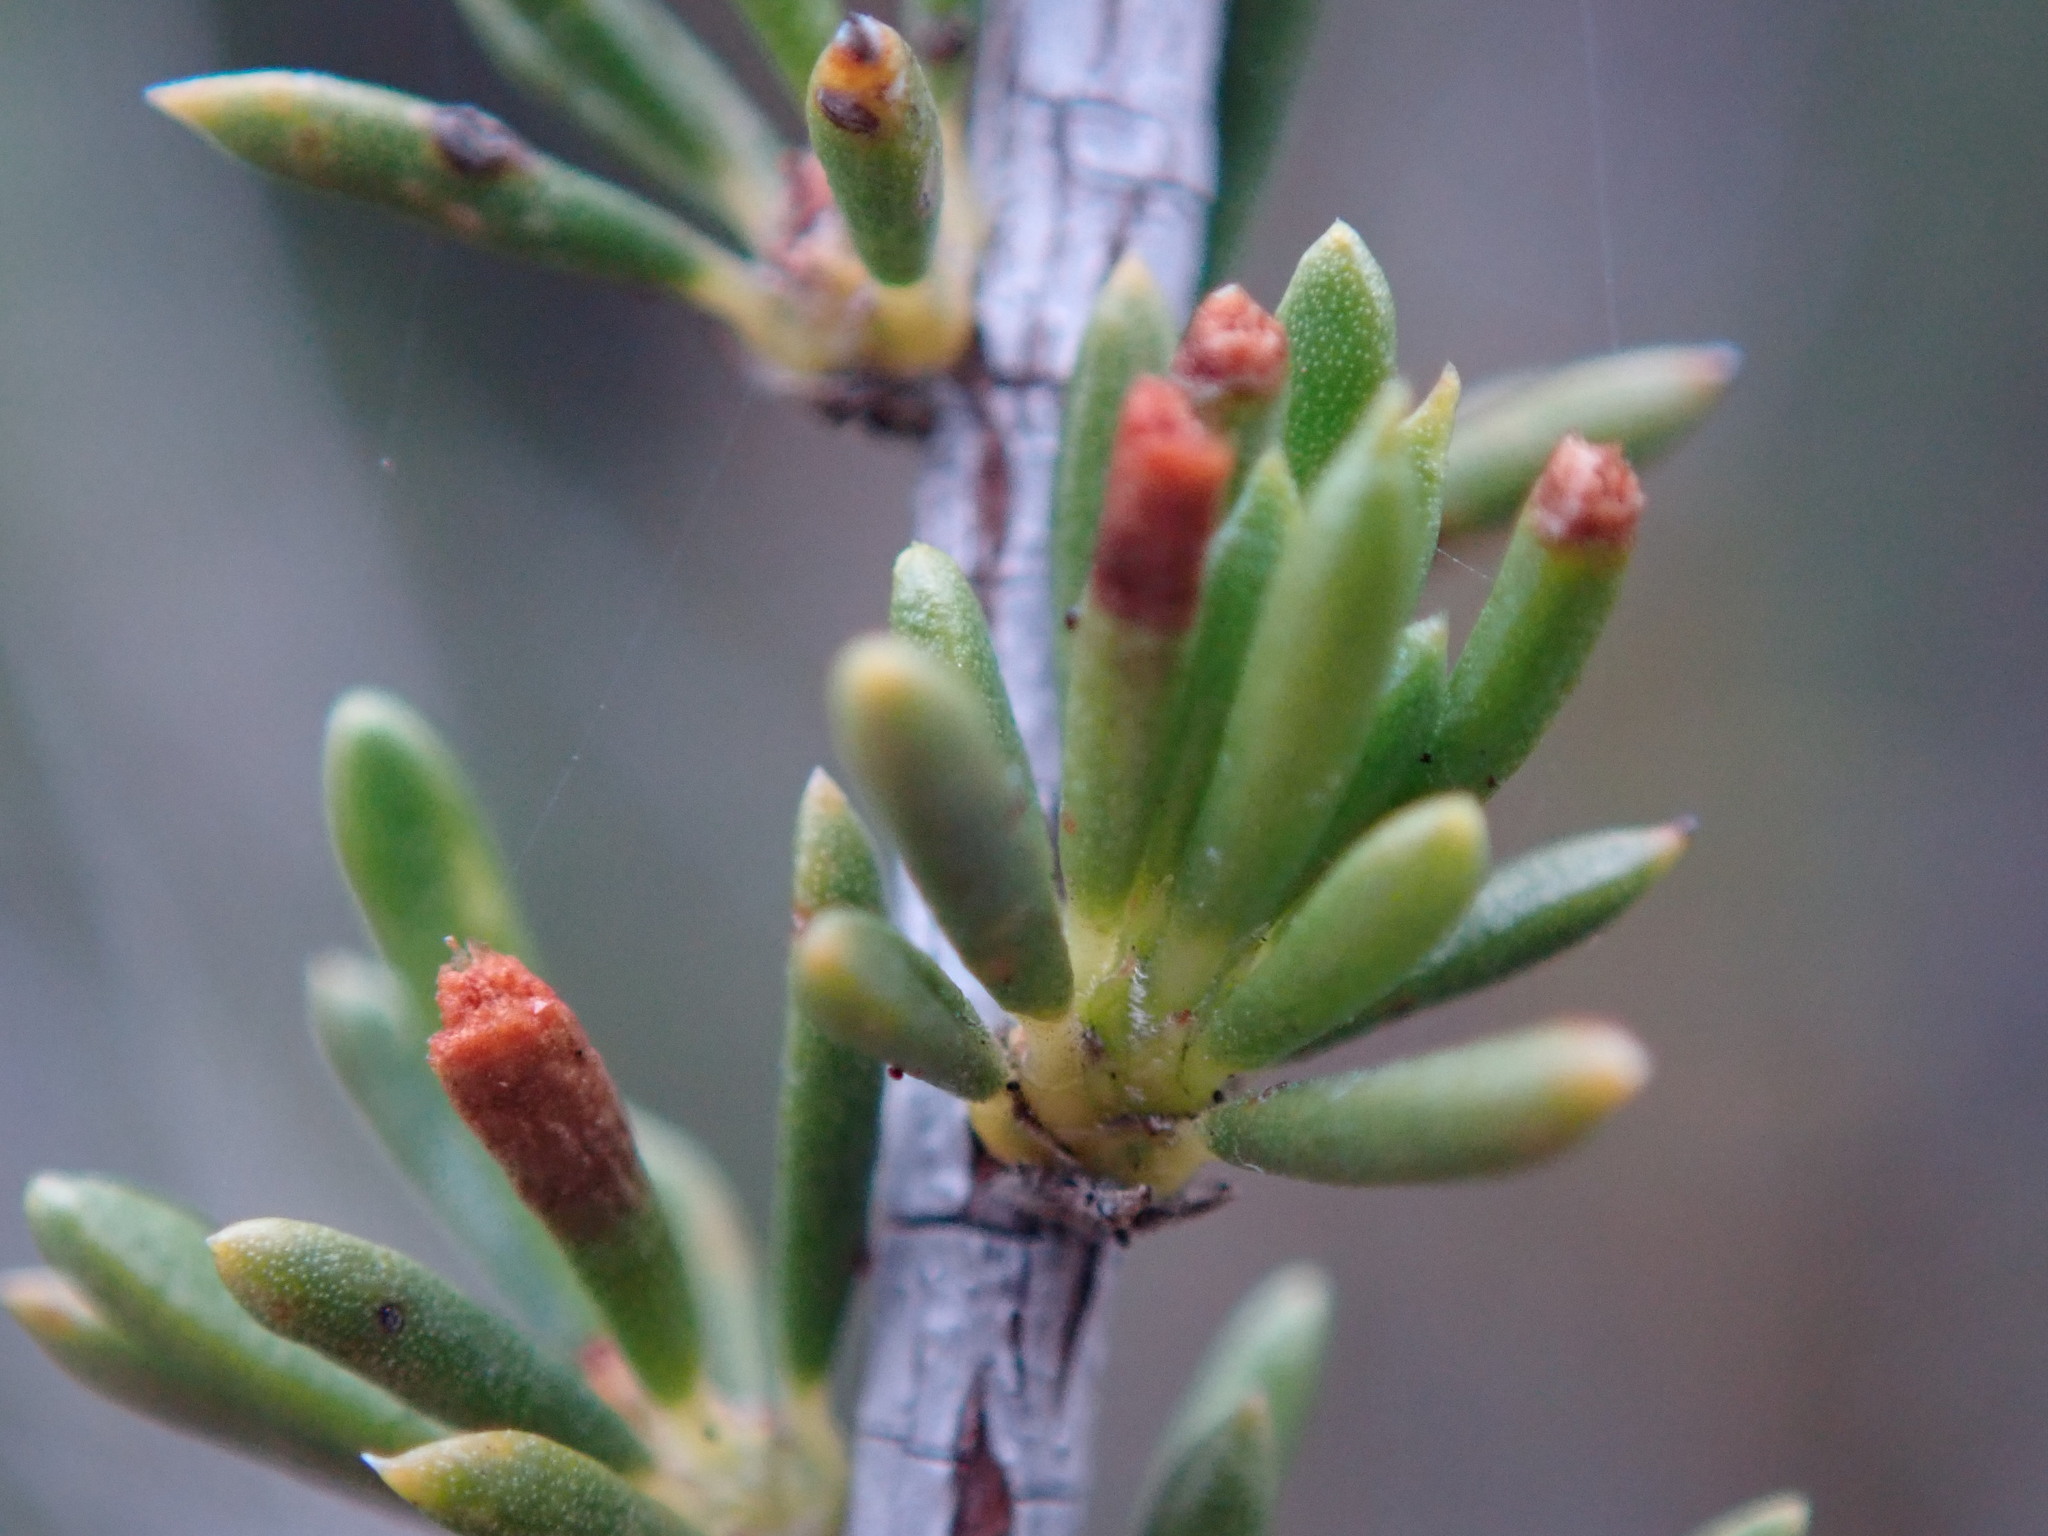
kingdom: Plantae
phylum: Tracheophyta
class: Magnoliopsida
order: Rosales
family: Rosaceae
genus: Adenostoma
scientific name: Adenostoma fasciculatum
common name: Chamise
